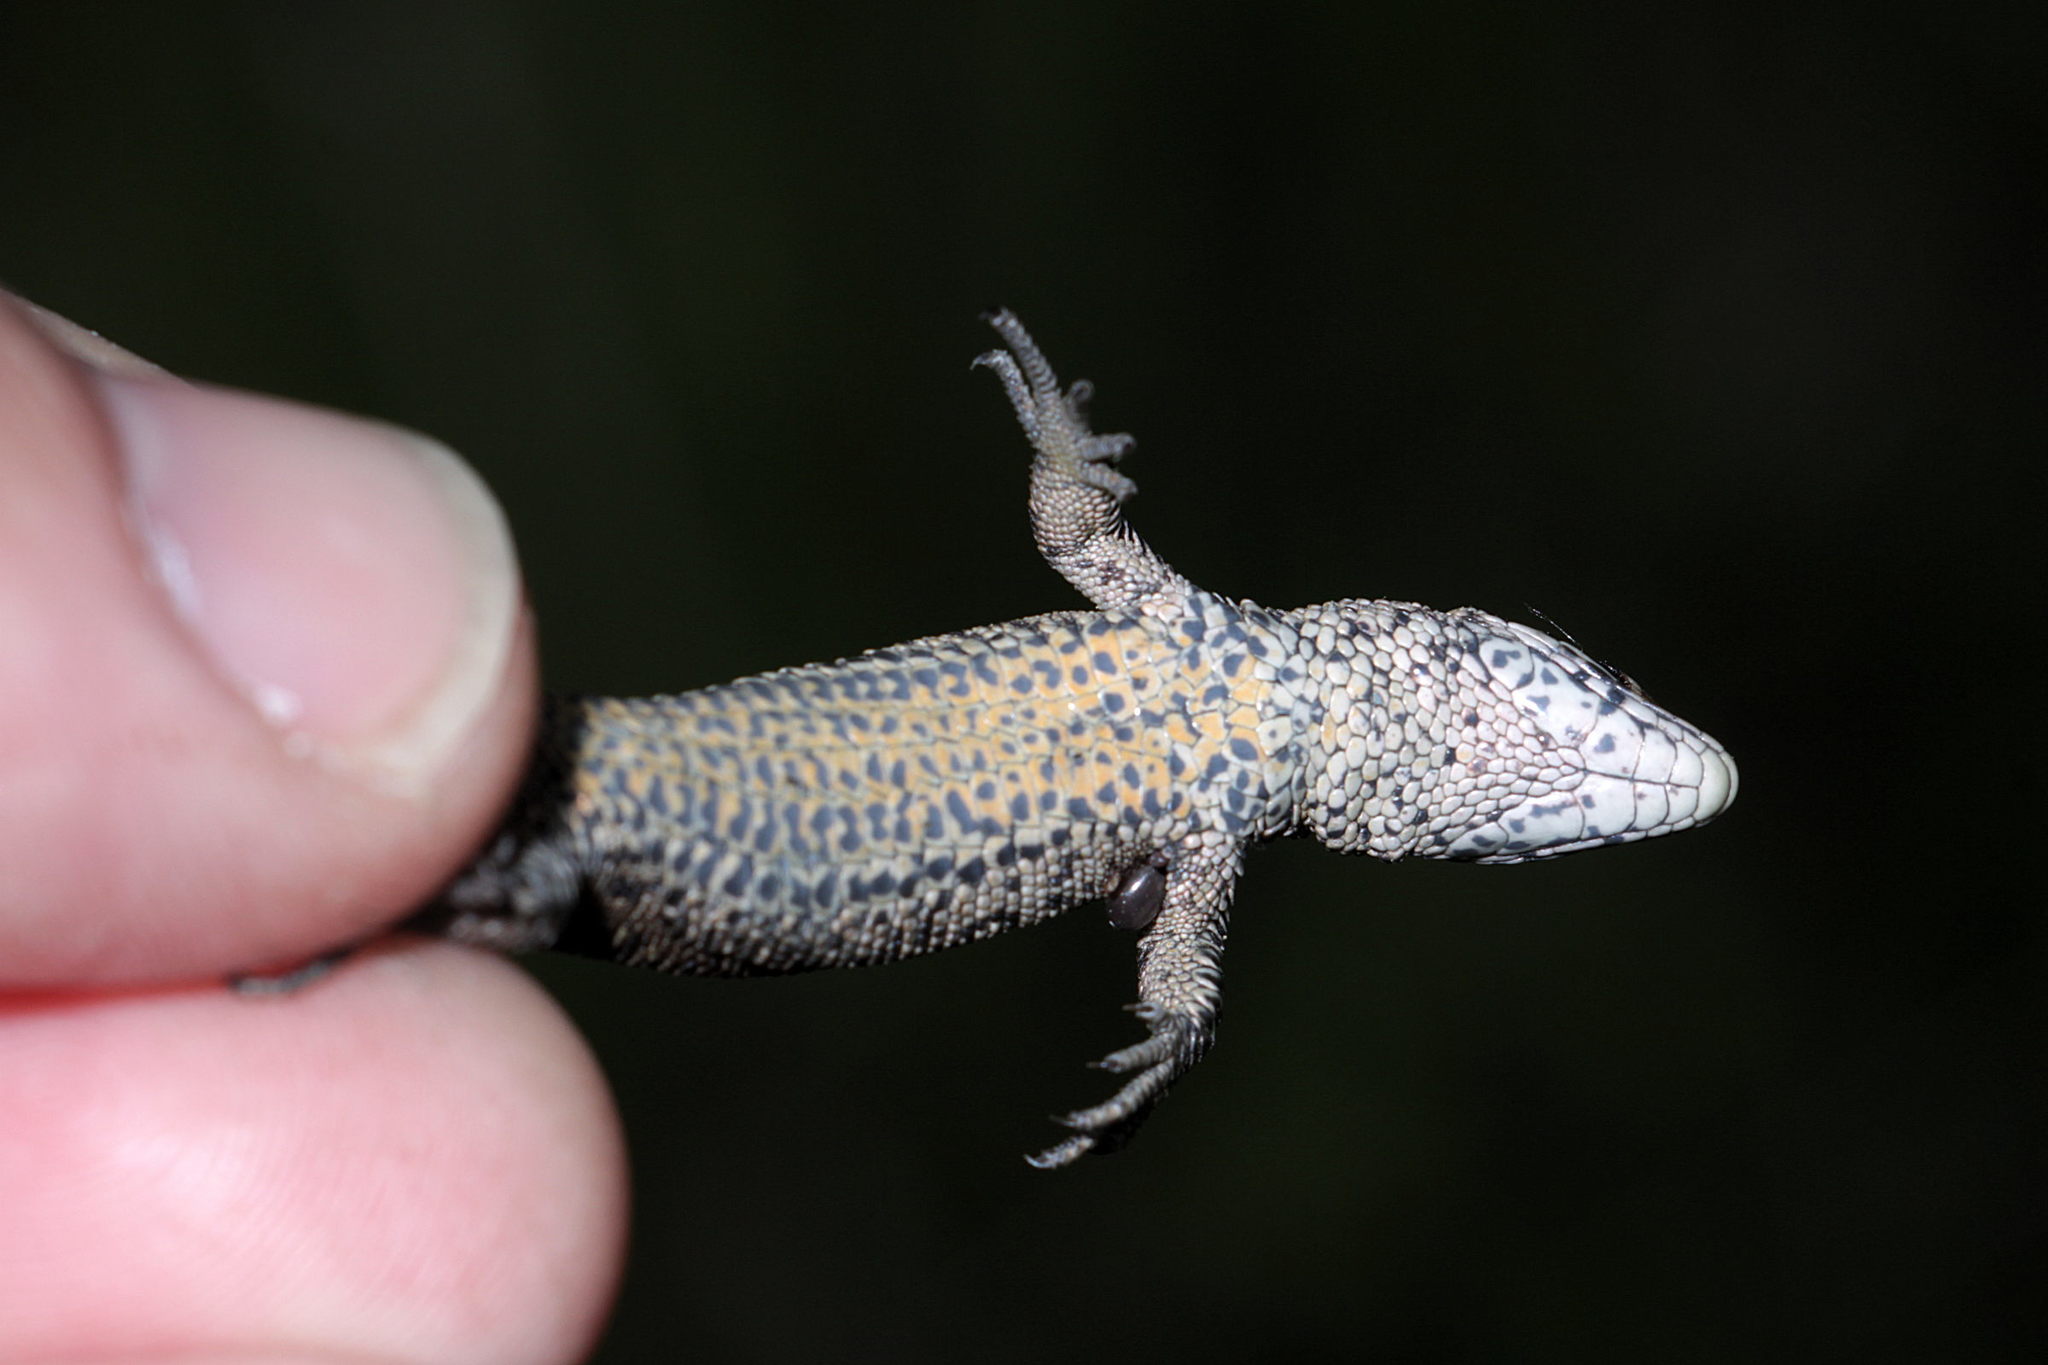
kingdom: Animalia
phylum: Chordata
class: Squamata
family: Lacertidae
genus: Zootoca
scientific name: Zootoca vivipara
